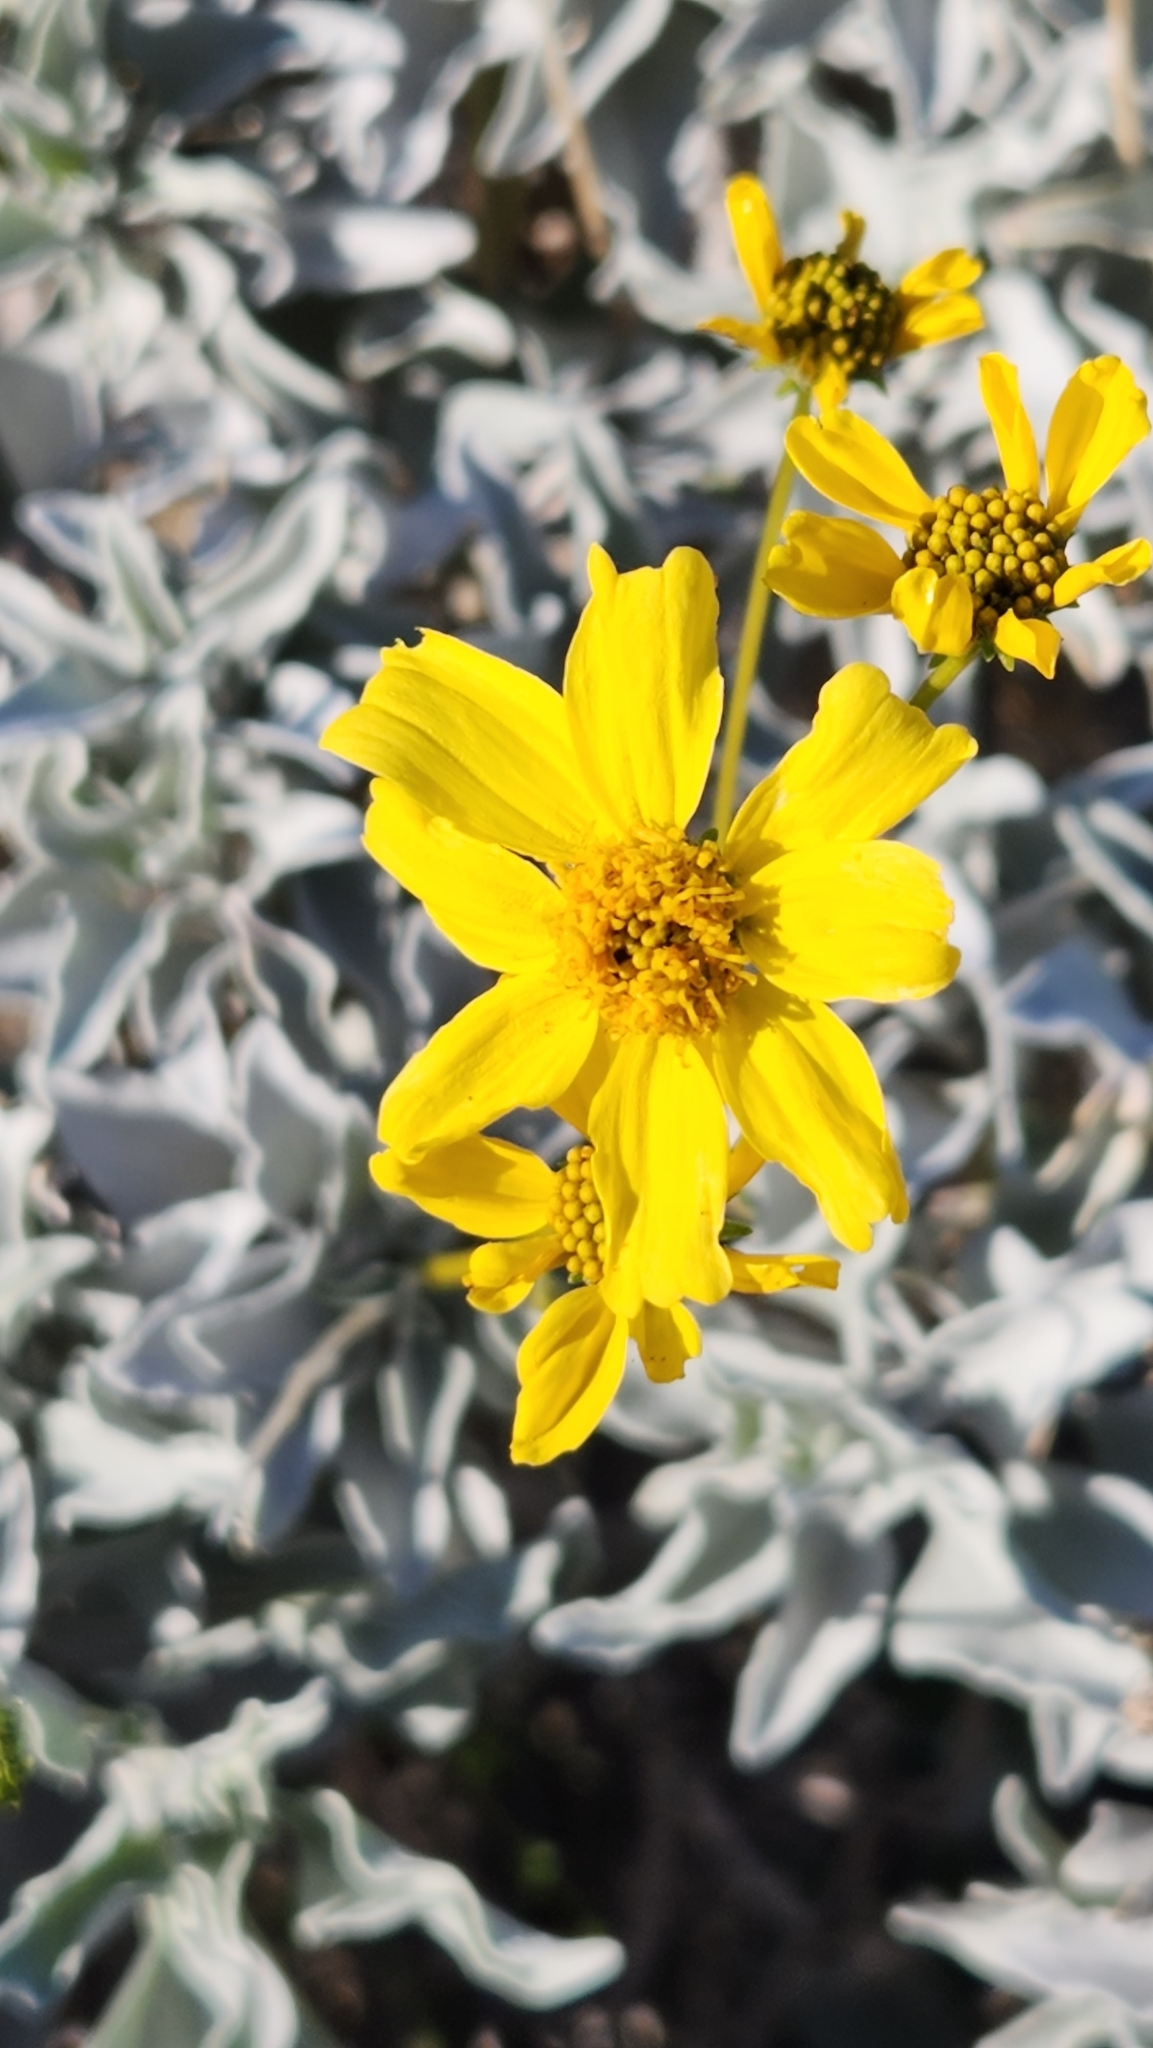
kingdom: Plantae
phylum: Tracheophyta
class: Magnoliopsida
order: Asterales
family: Asteraceae
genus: Encelia
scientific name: Encelia farinosa
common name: Brittlebush
